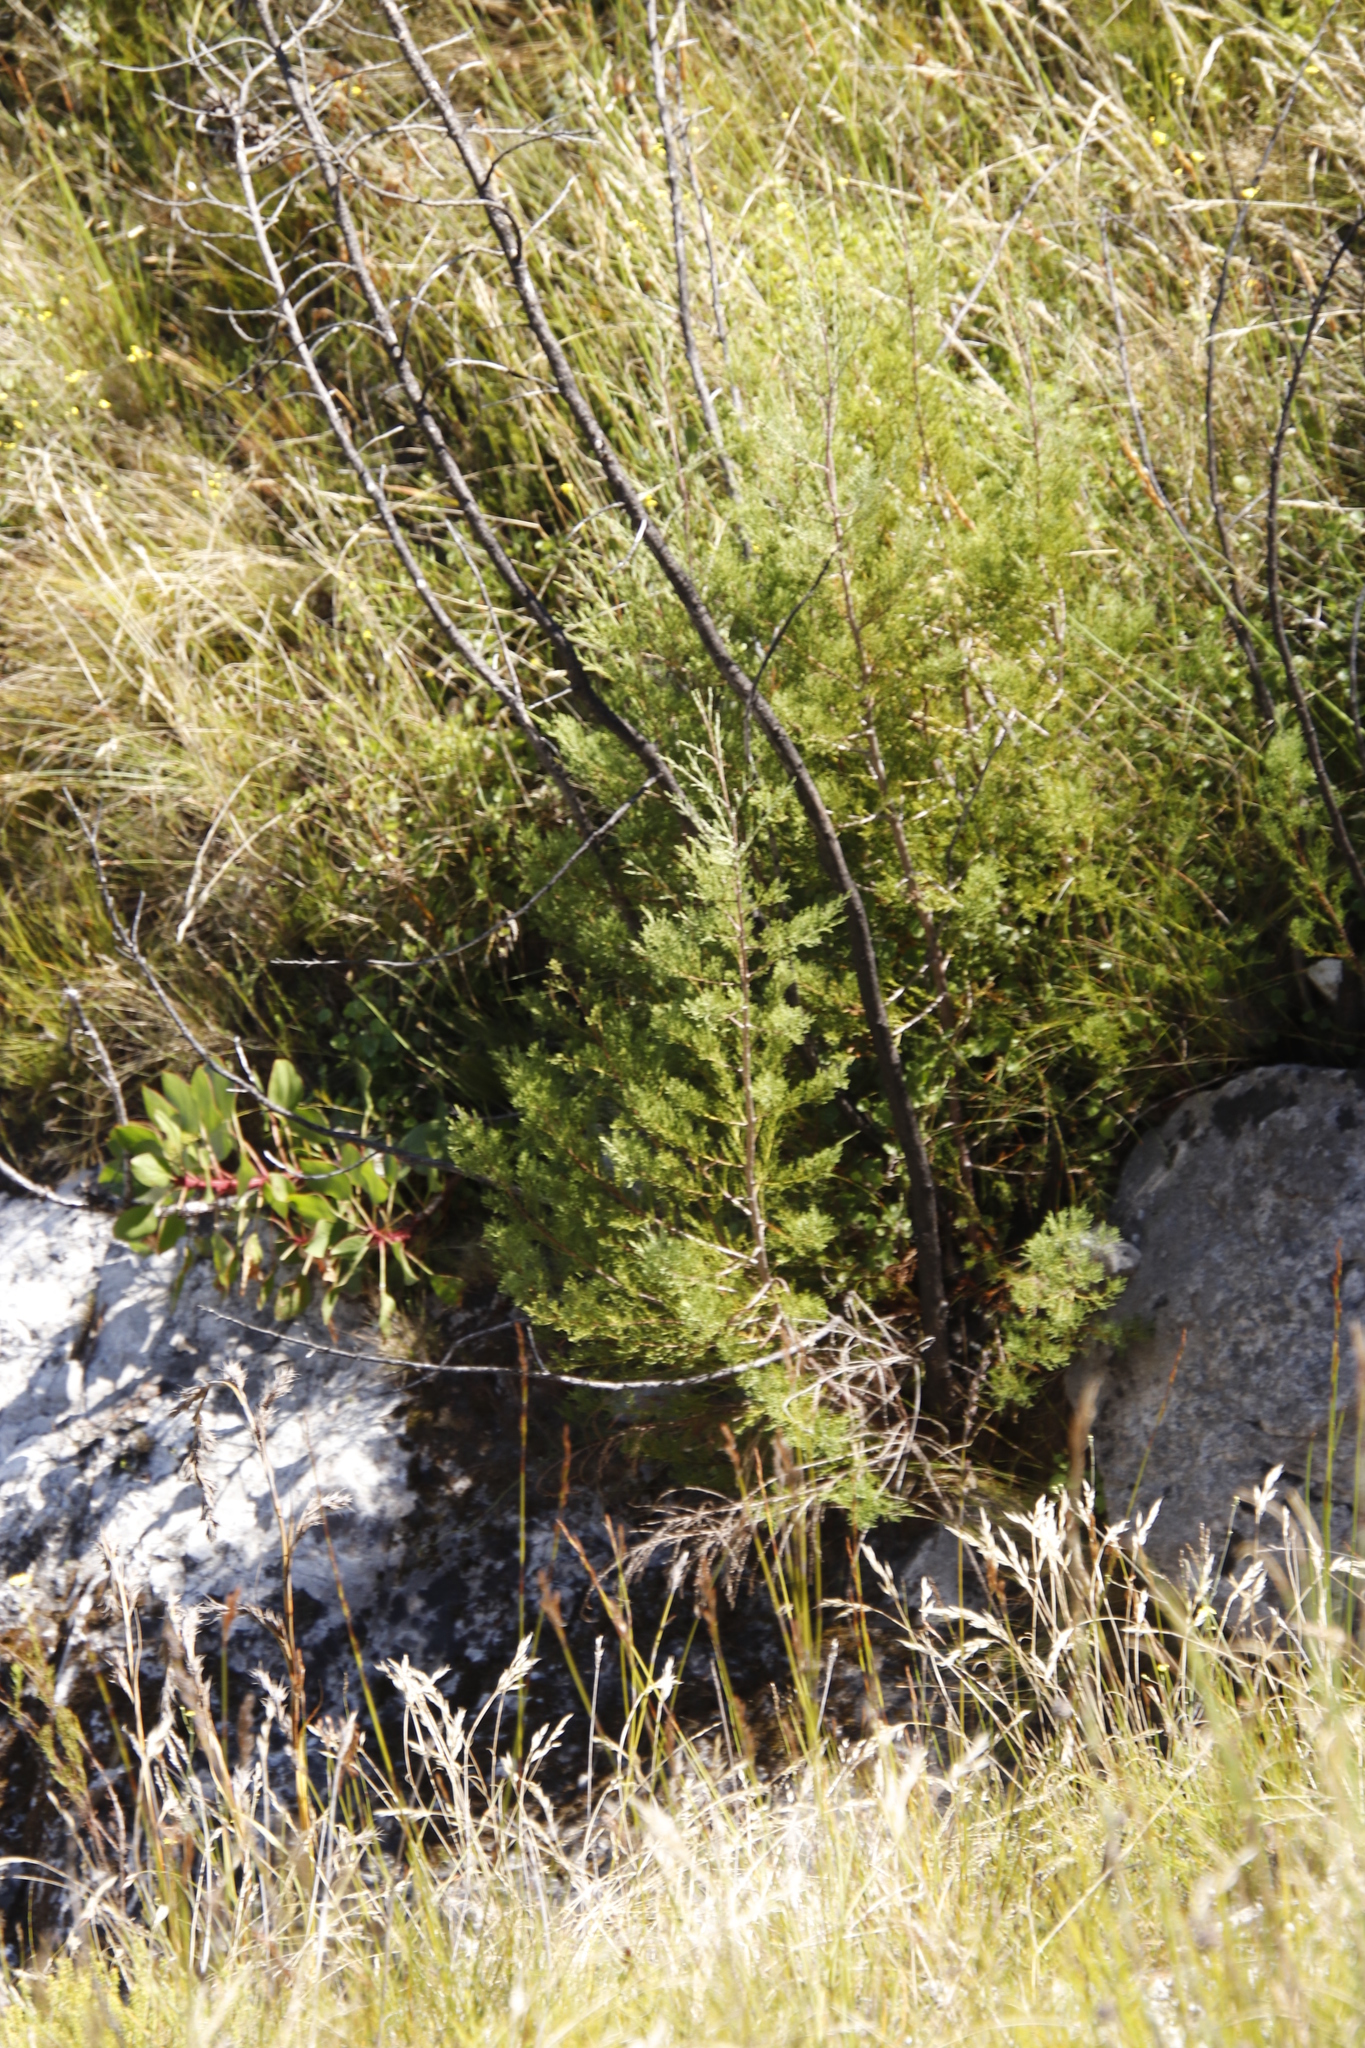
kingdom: Plantae
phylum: Tracheophyta
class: Magnoliopsida
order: Proteales
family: Proteaceae
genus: Protea
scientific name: Protea cynaroides
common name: King protea
